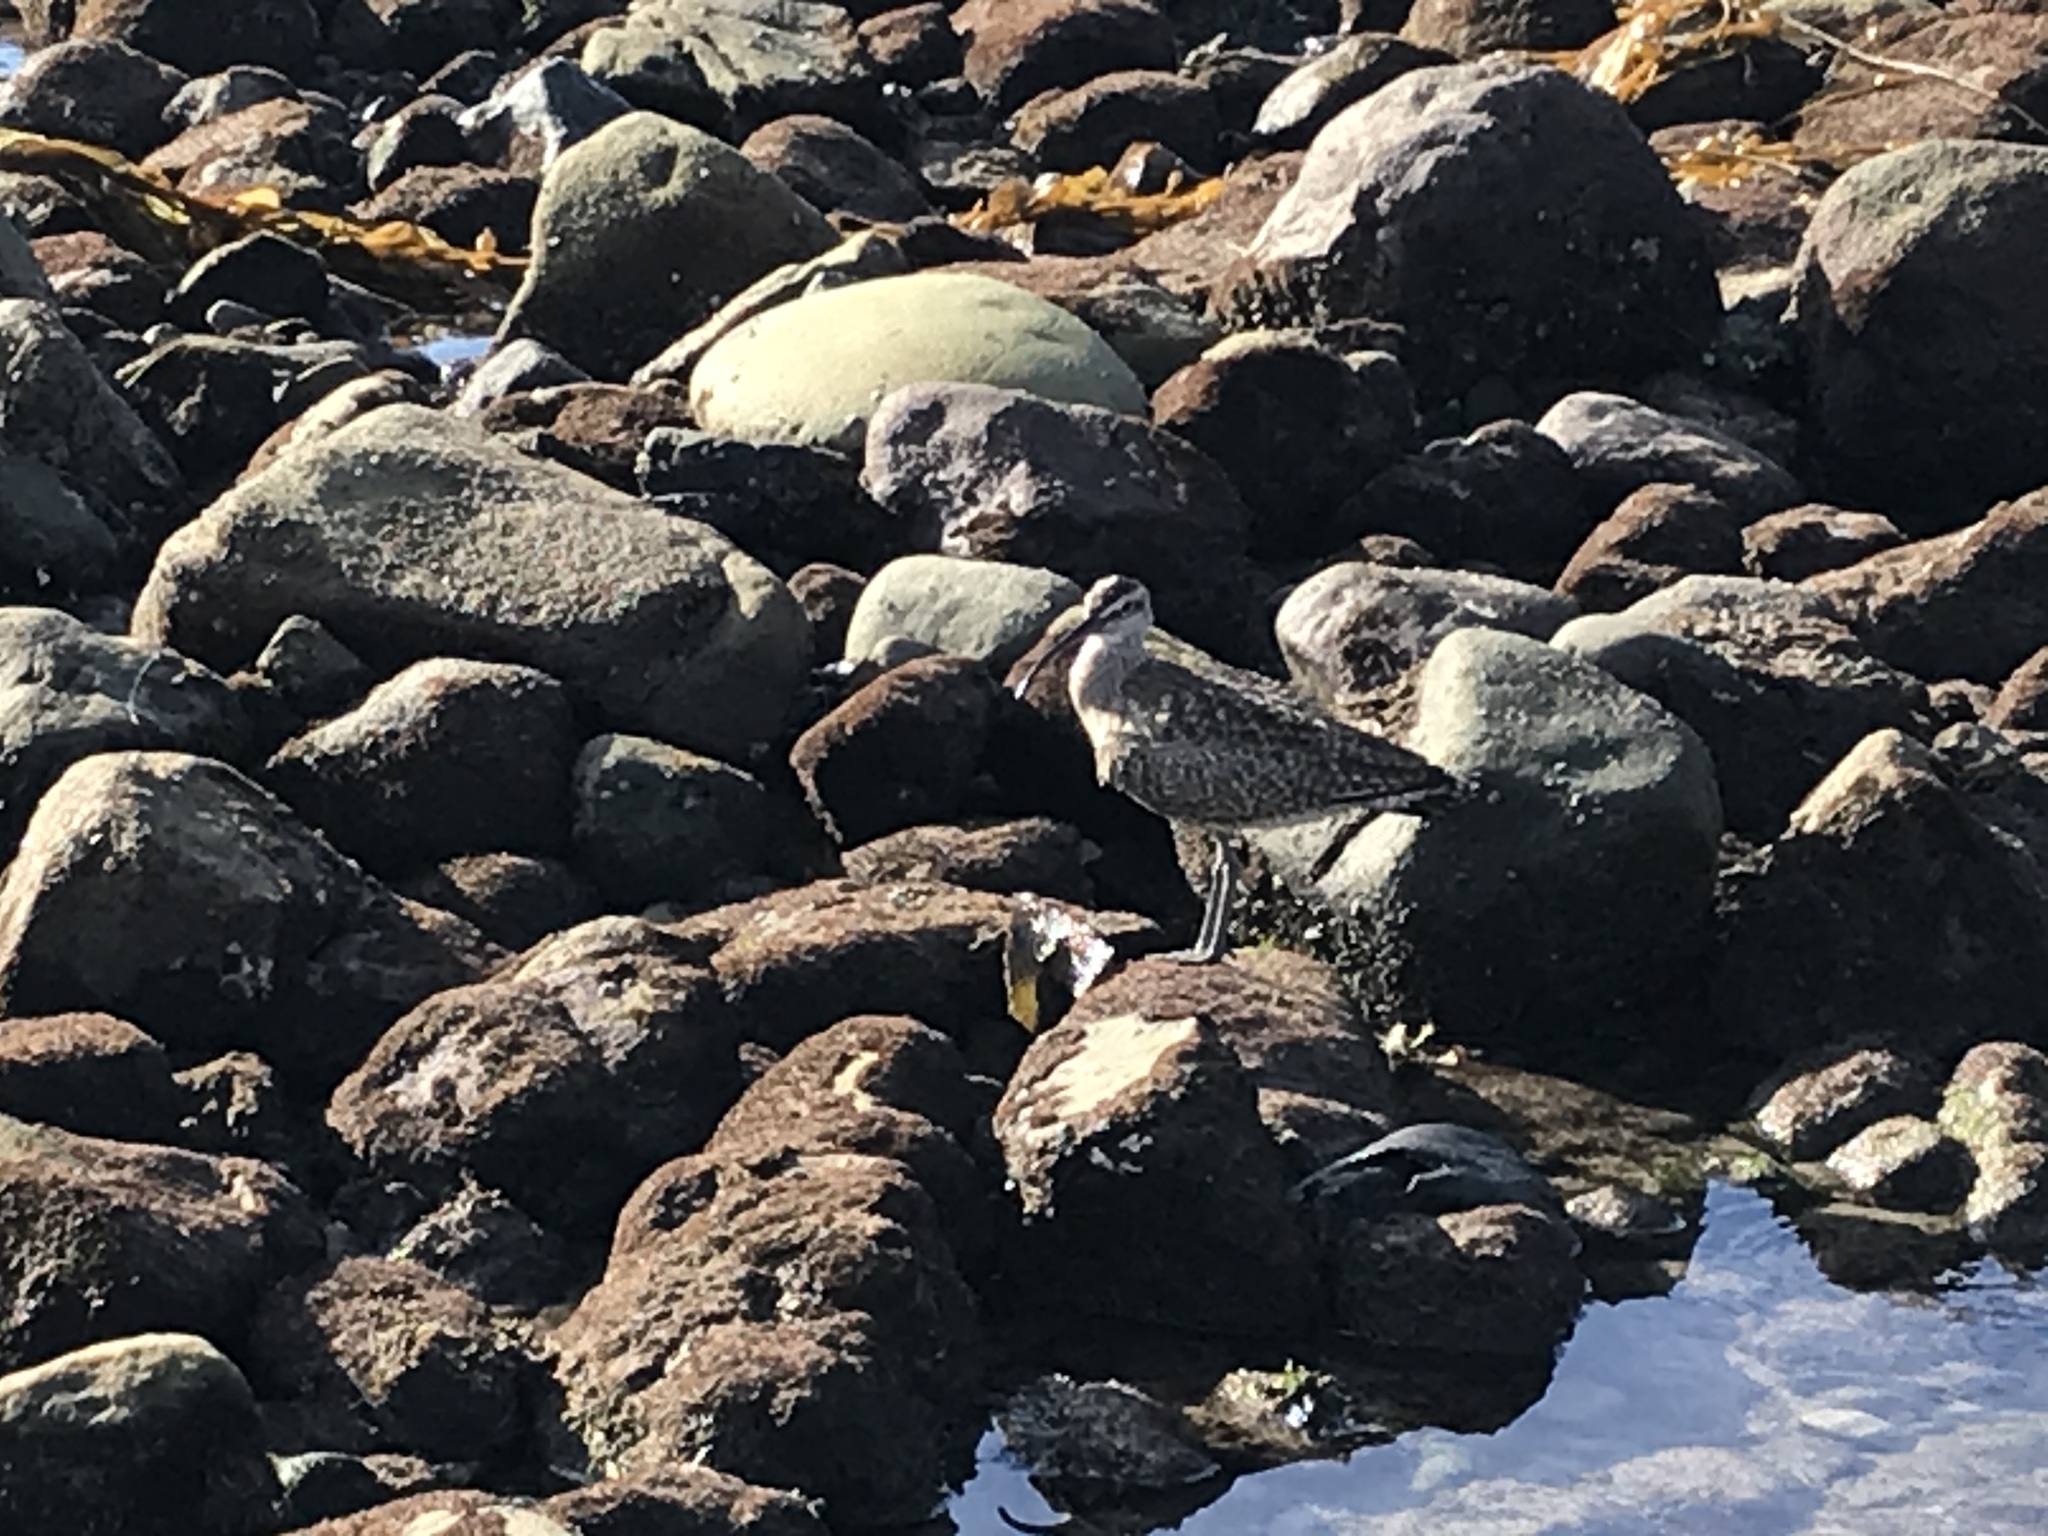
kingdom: Animalia
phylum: Chordata
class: Aves
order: Charadriiformes
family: Scolopacidae
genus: Numenius
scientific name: Numenius phaeopus
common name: Whimbrel
